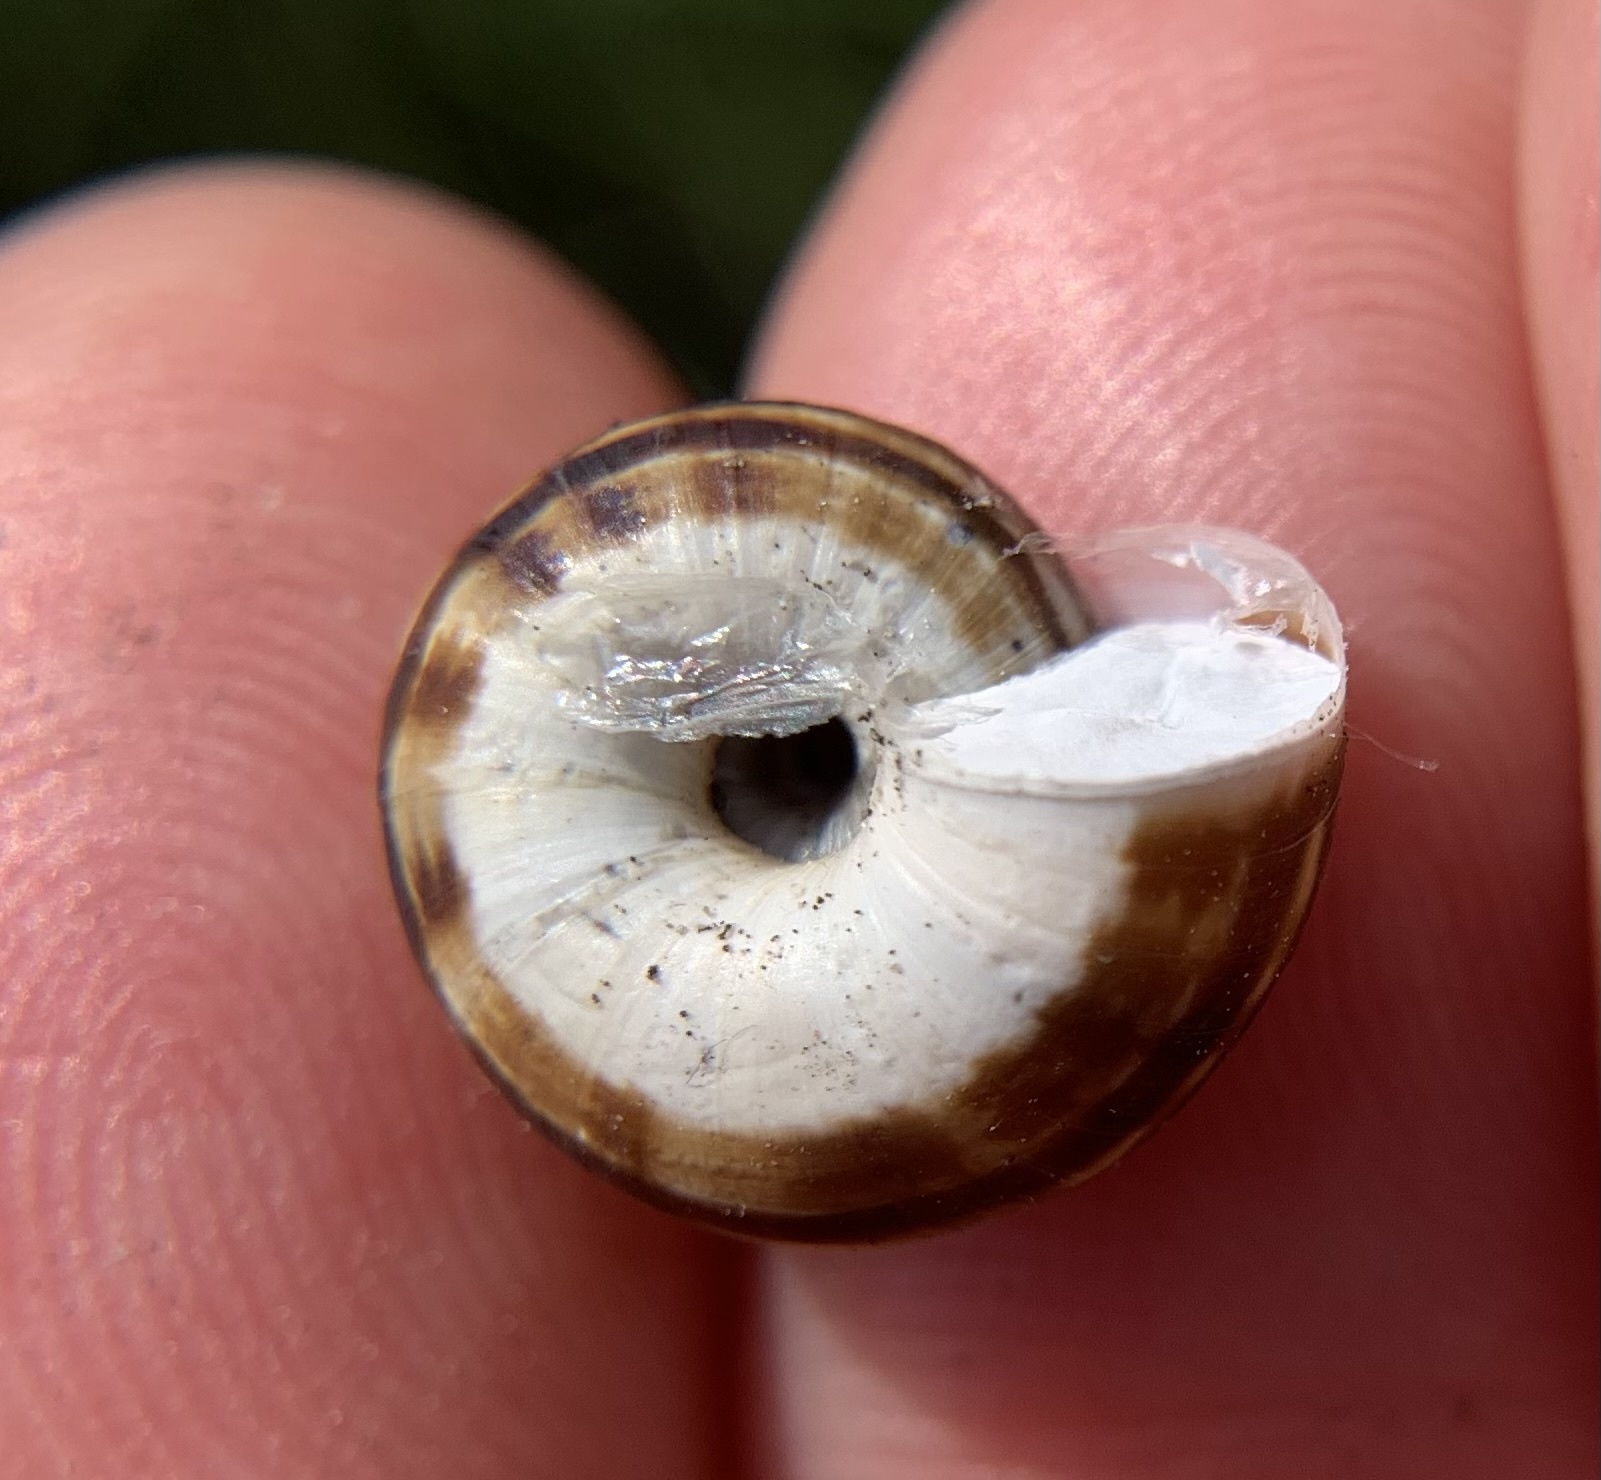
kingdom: Animalia
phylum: Mollusca
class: Gastropoda
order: Stylommatophora
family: Geomitridae
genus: Xerolenta
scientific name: Xerolenta obvia
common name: White heath snail
